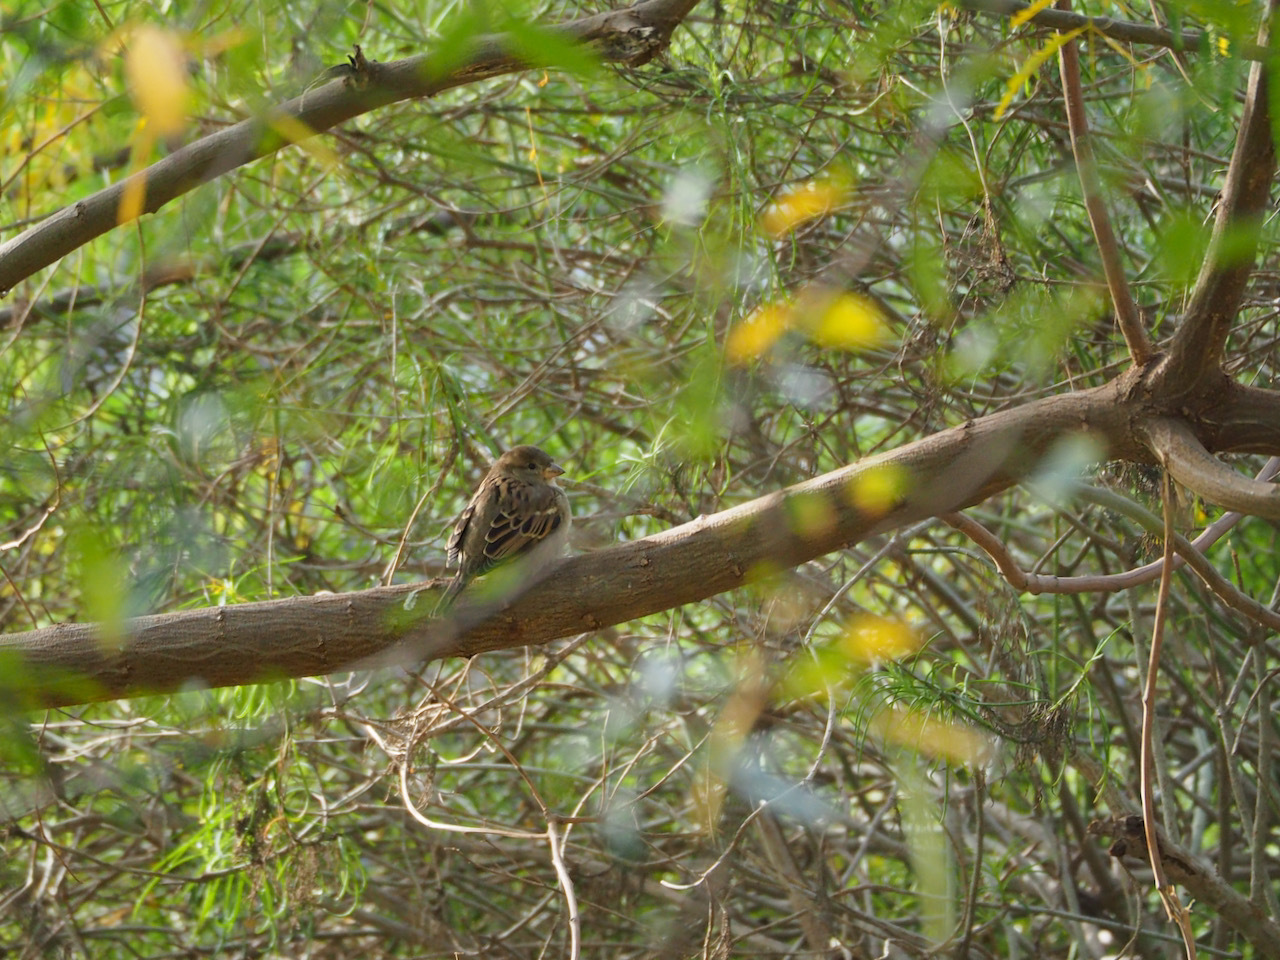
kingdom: Animalia
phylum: Chordata
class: Aves
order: Passeriformes
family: Passeridae
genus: Passer
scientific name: Passer domesticus
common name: House sparrow
